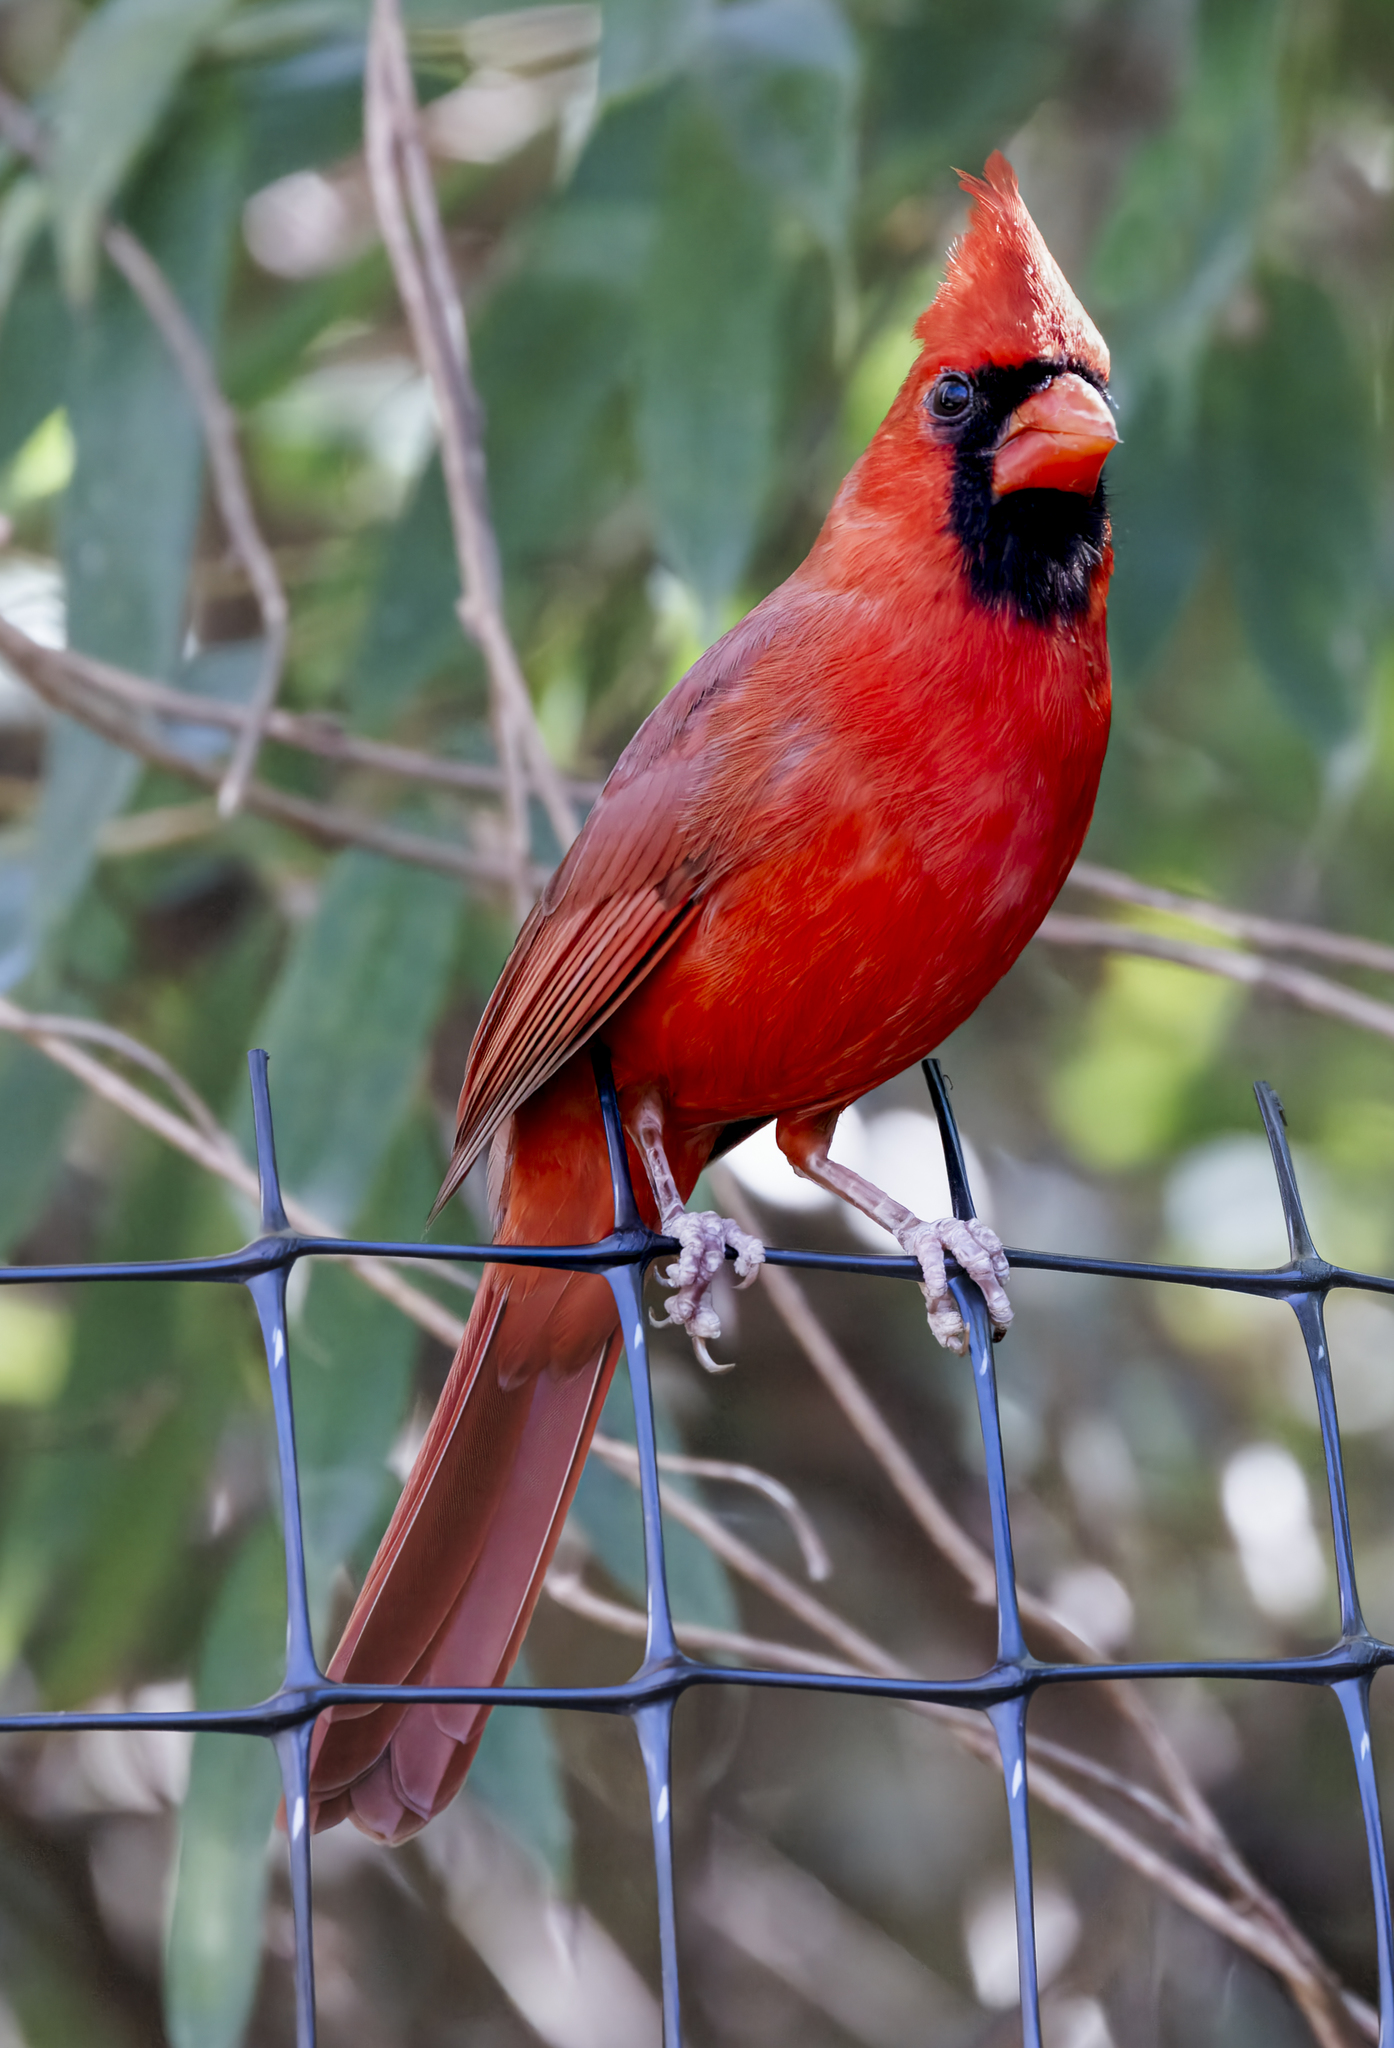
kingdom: Animalia
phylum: Chordata
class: Aves
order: Passeriformes
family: Cardinalidae
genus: Cardinalis
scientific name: Cardinalis cardinalis
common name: Northern cardinal
